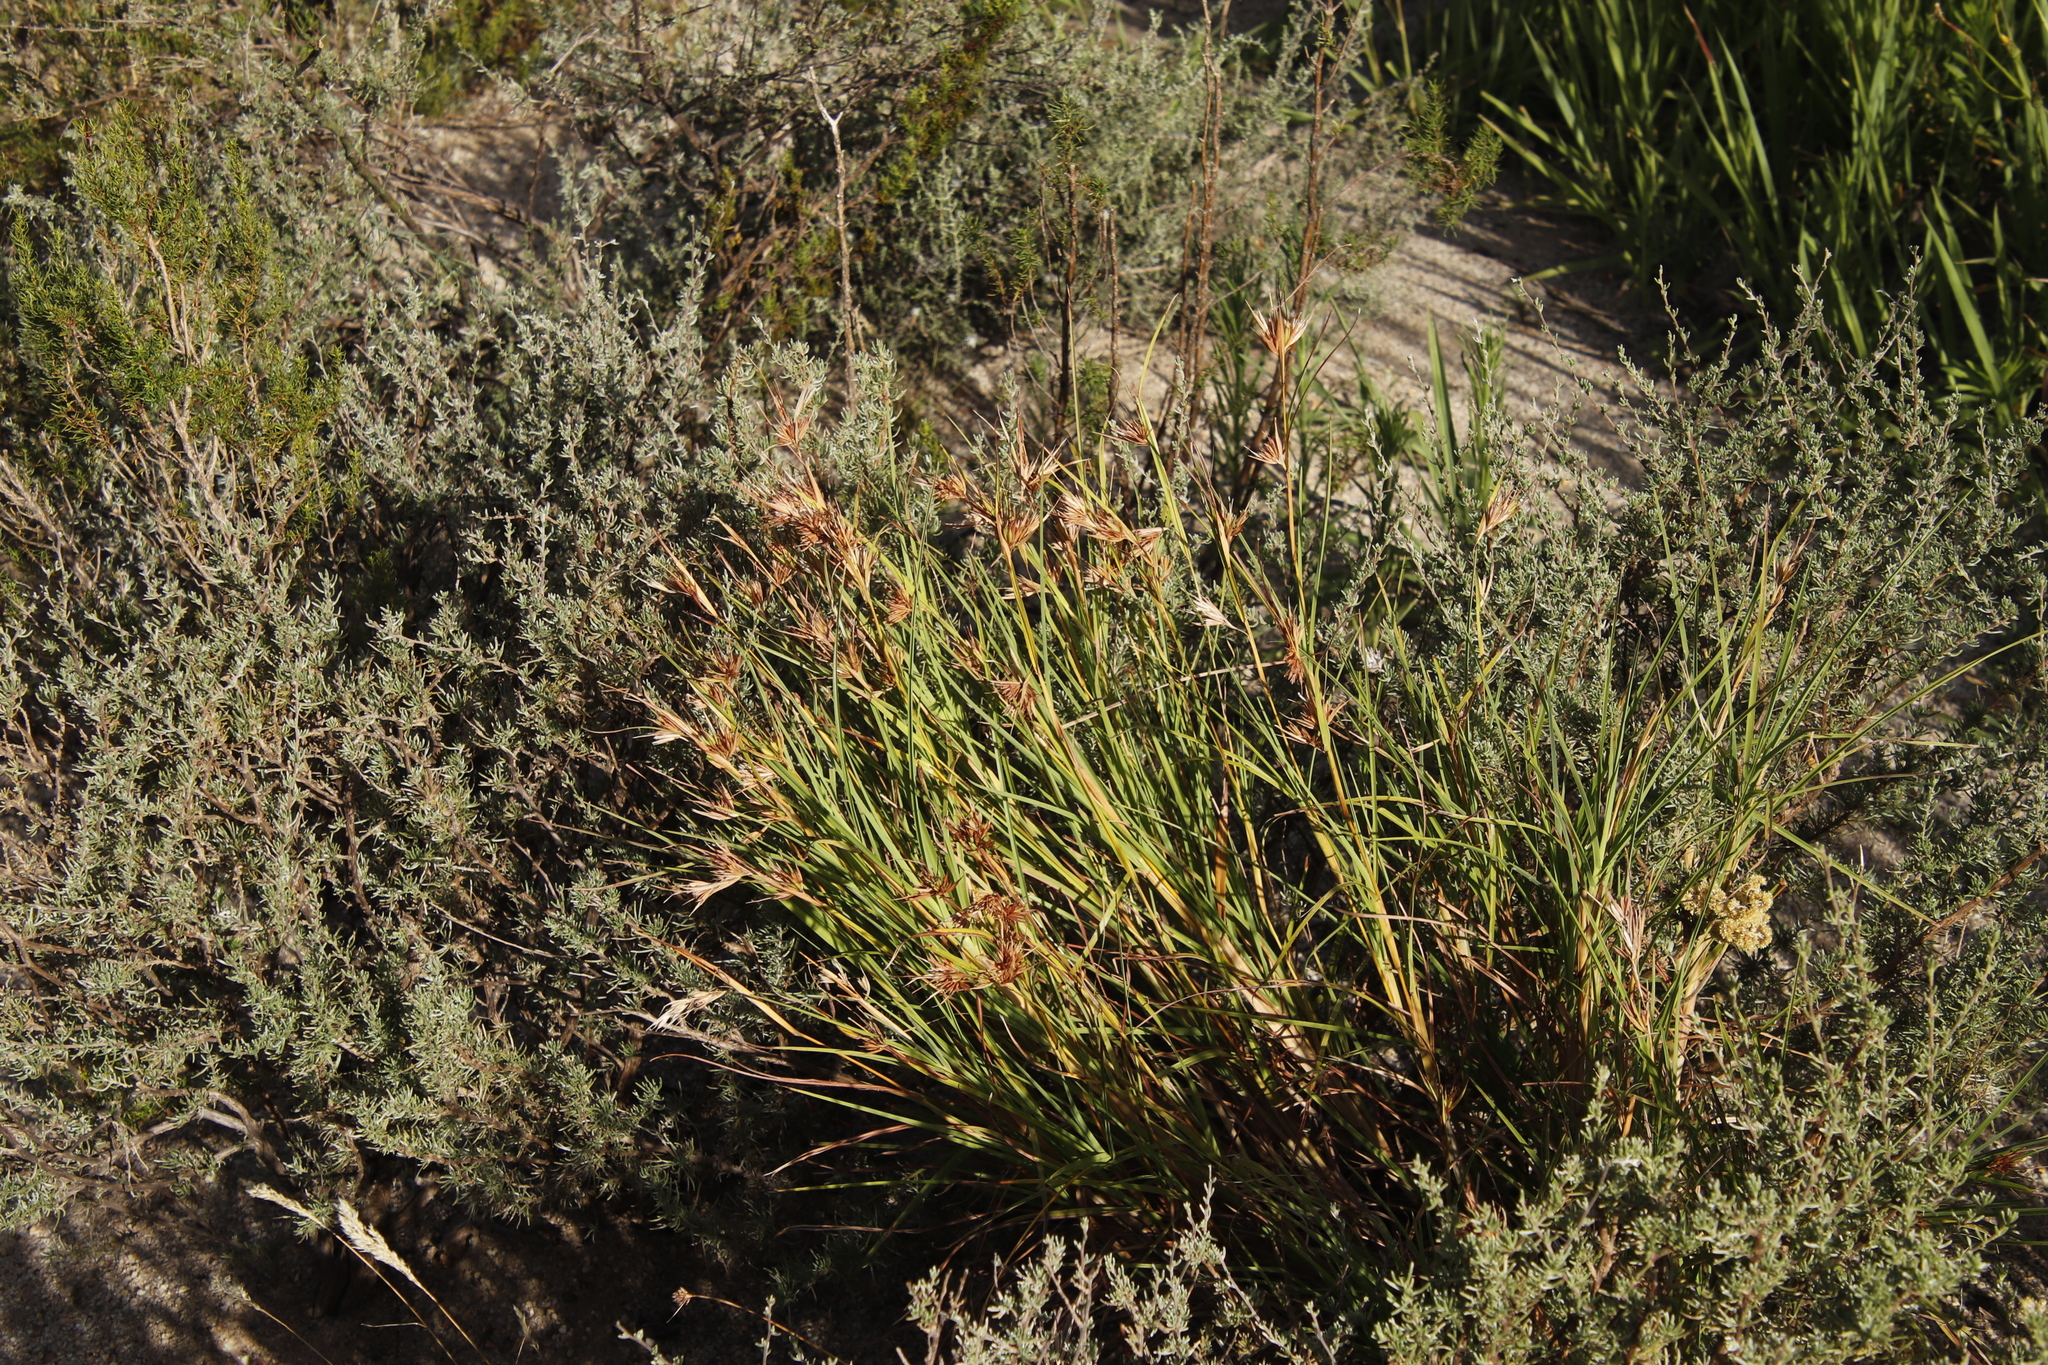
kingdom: Plantae
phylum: Tracheophyta
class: Liliopsida
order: Poales
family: Poaceae
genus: Themeda
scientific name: Themeda triandra
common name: Kangaroo grass
